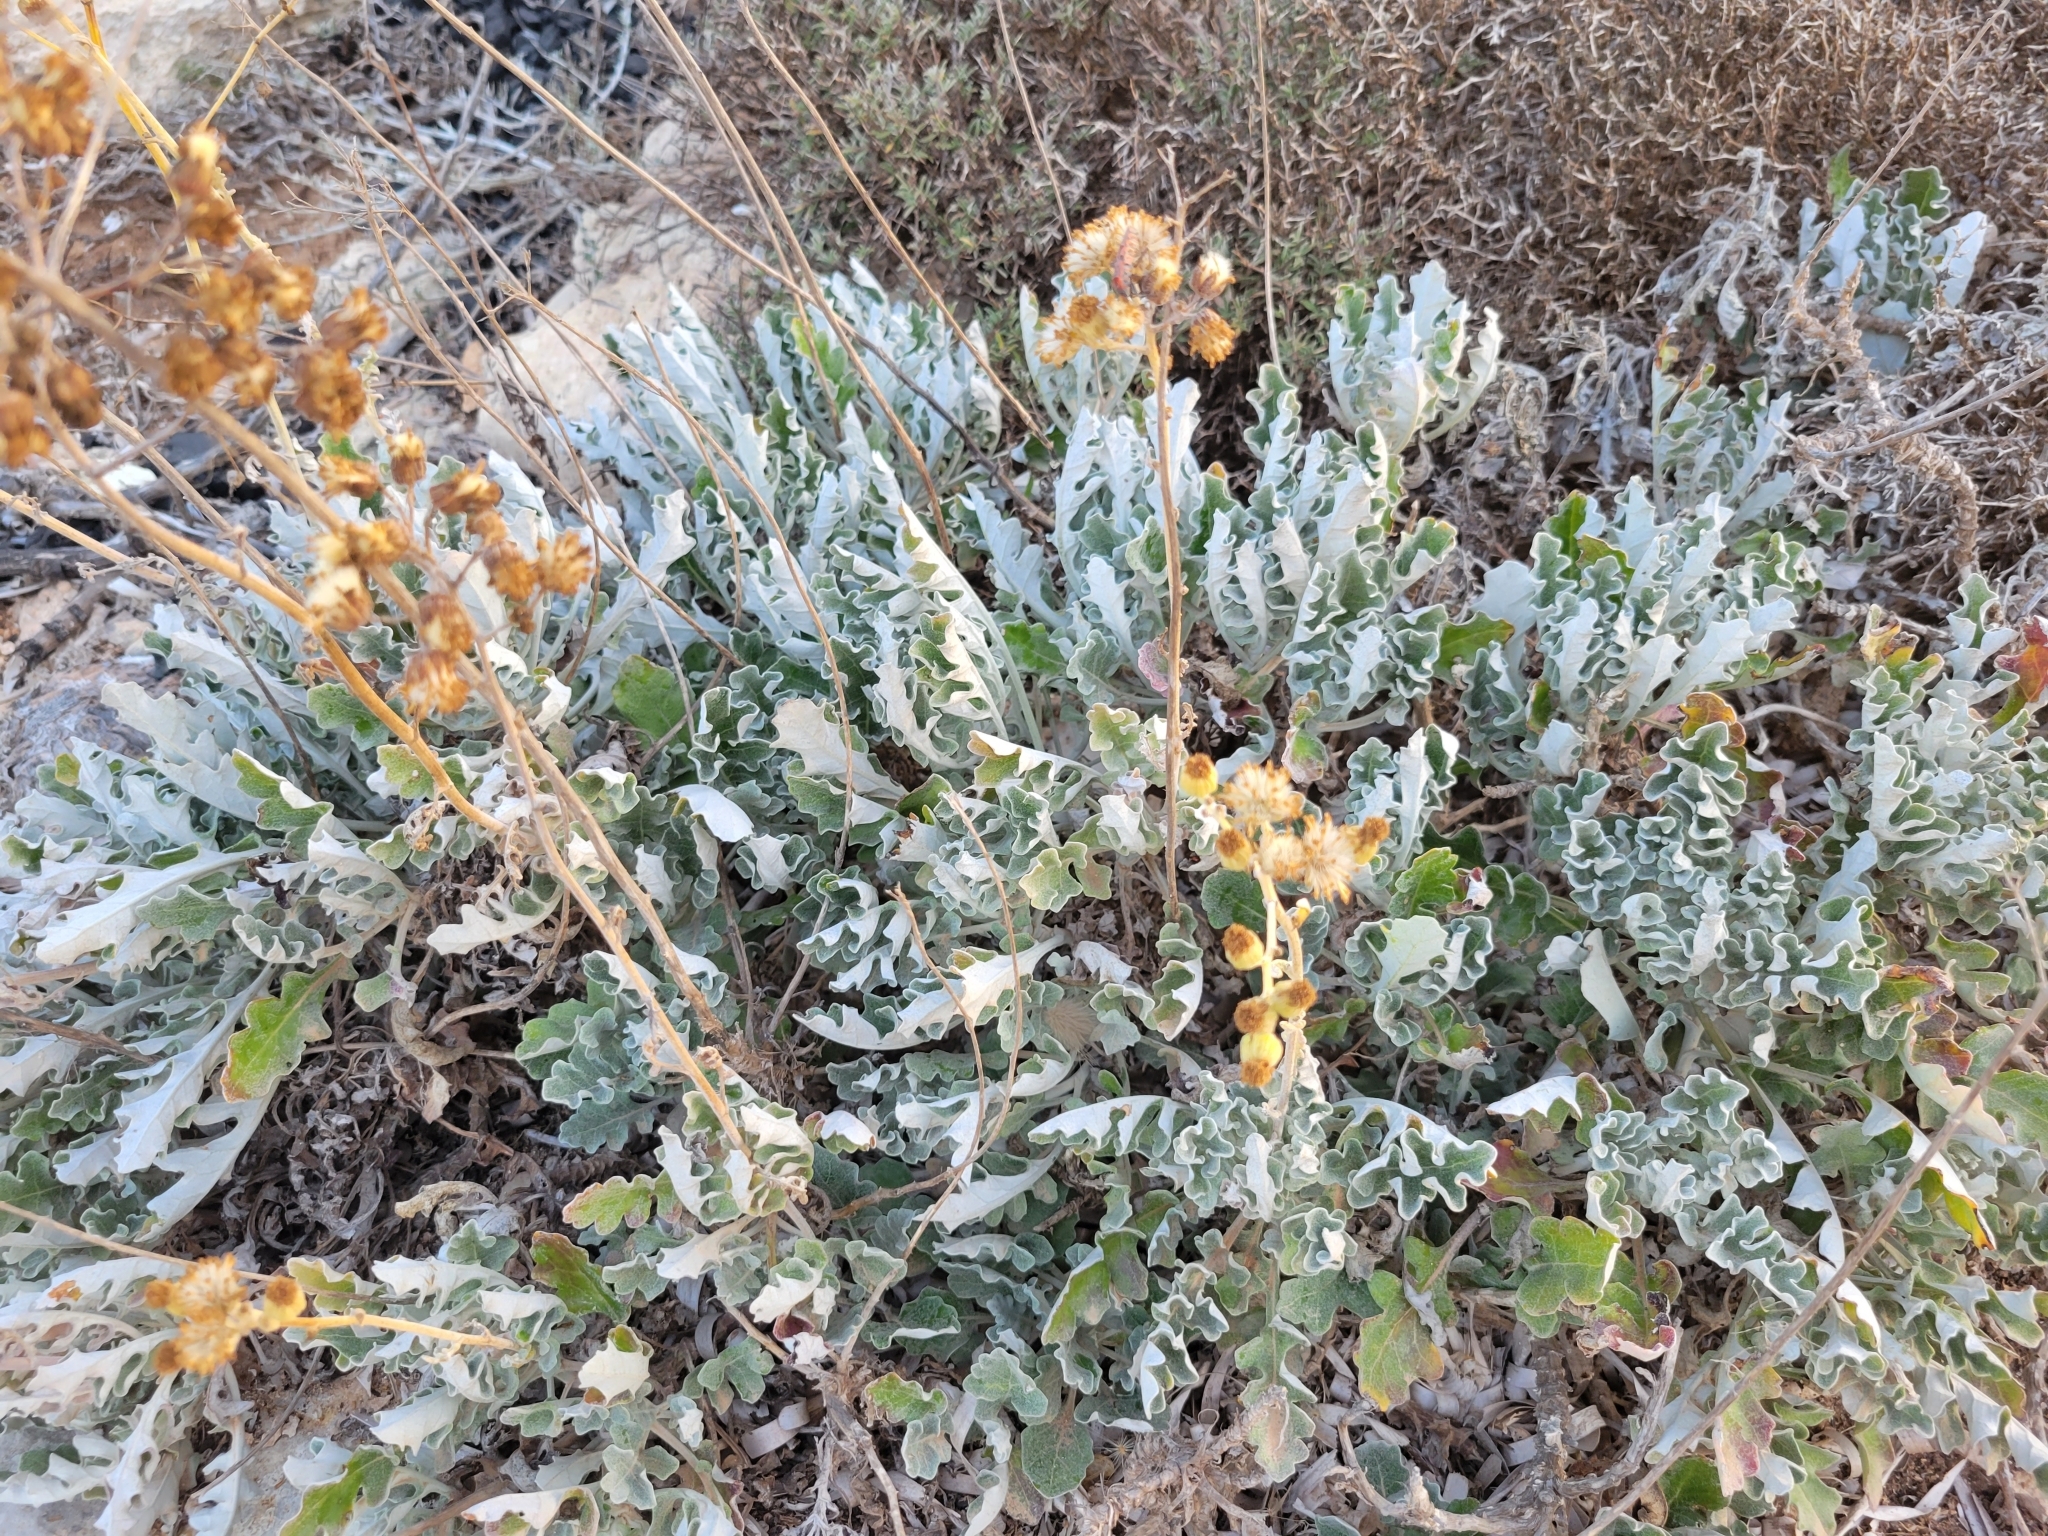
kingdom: Plantae
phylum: Tracheophyta
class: Magnoliopsida
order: Asterales
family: Asteraceae
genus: Jacobaea
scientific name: Jacobaea maritima
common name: Silver ragwort
